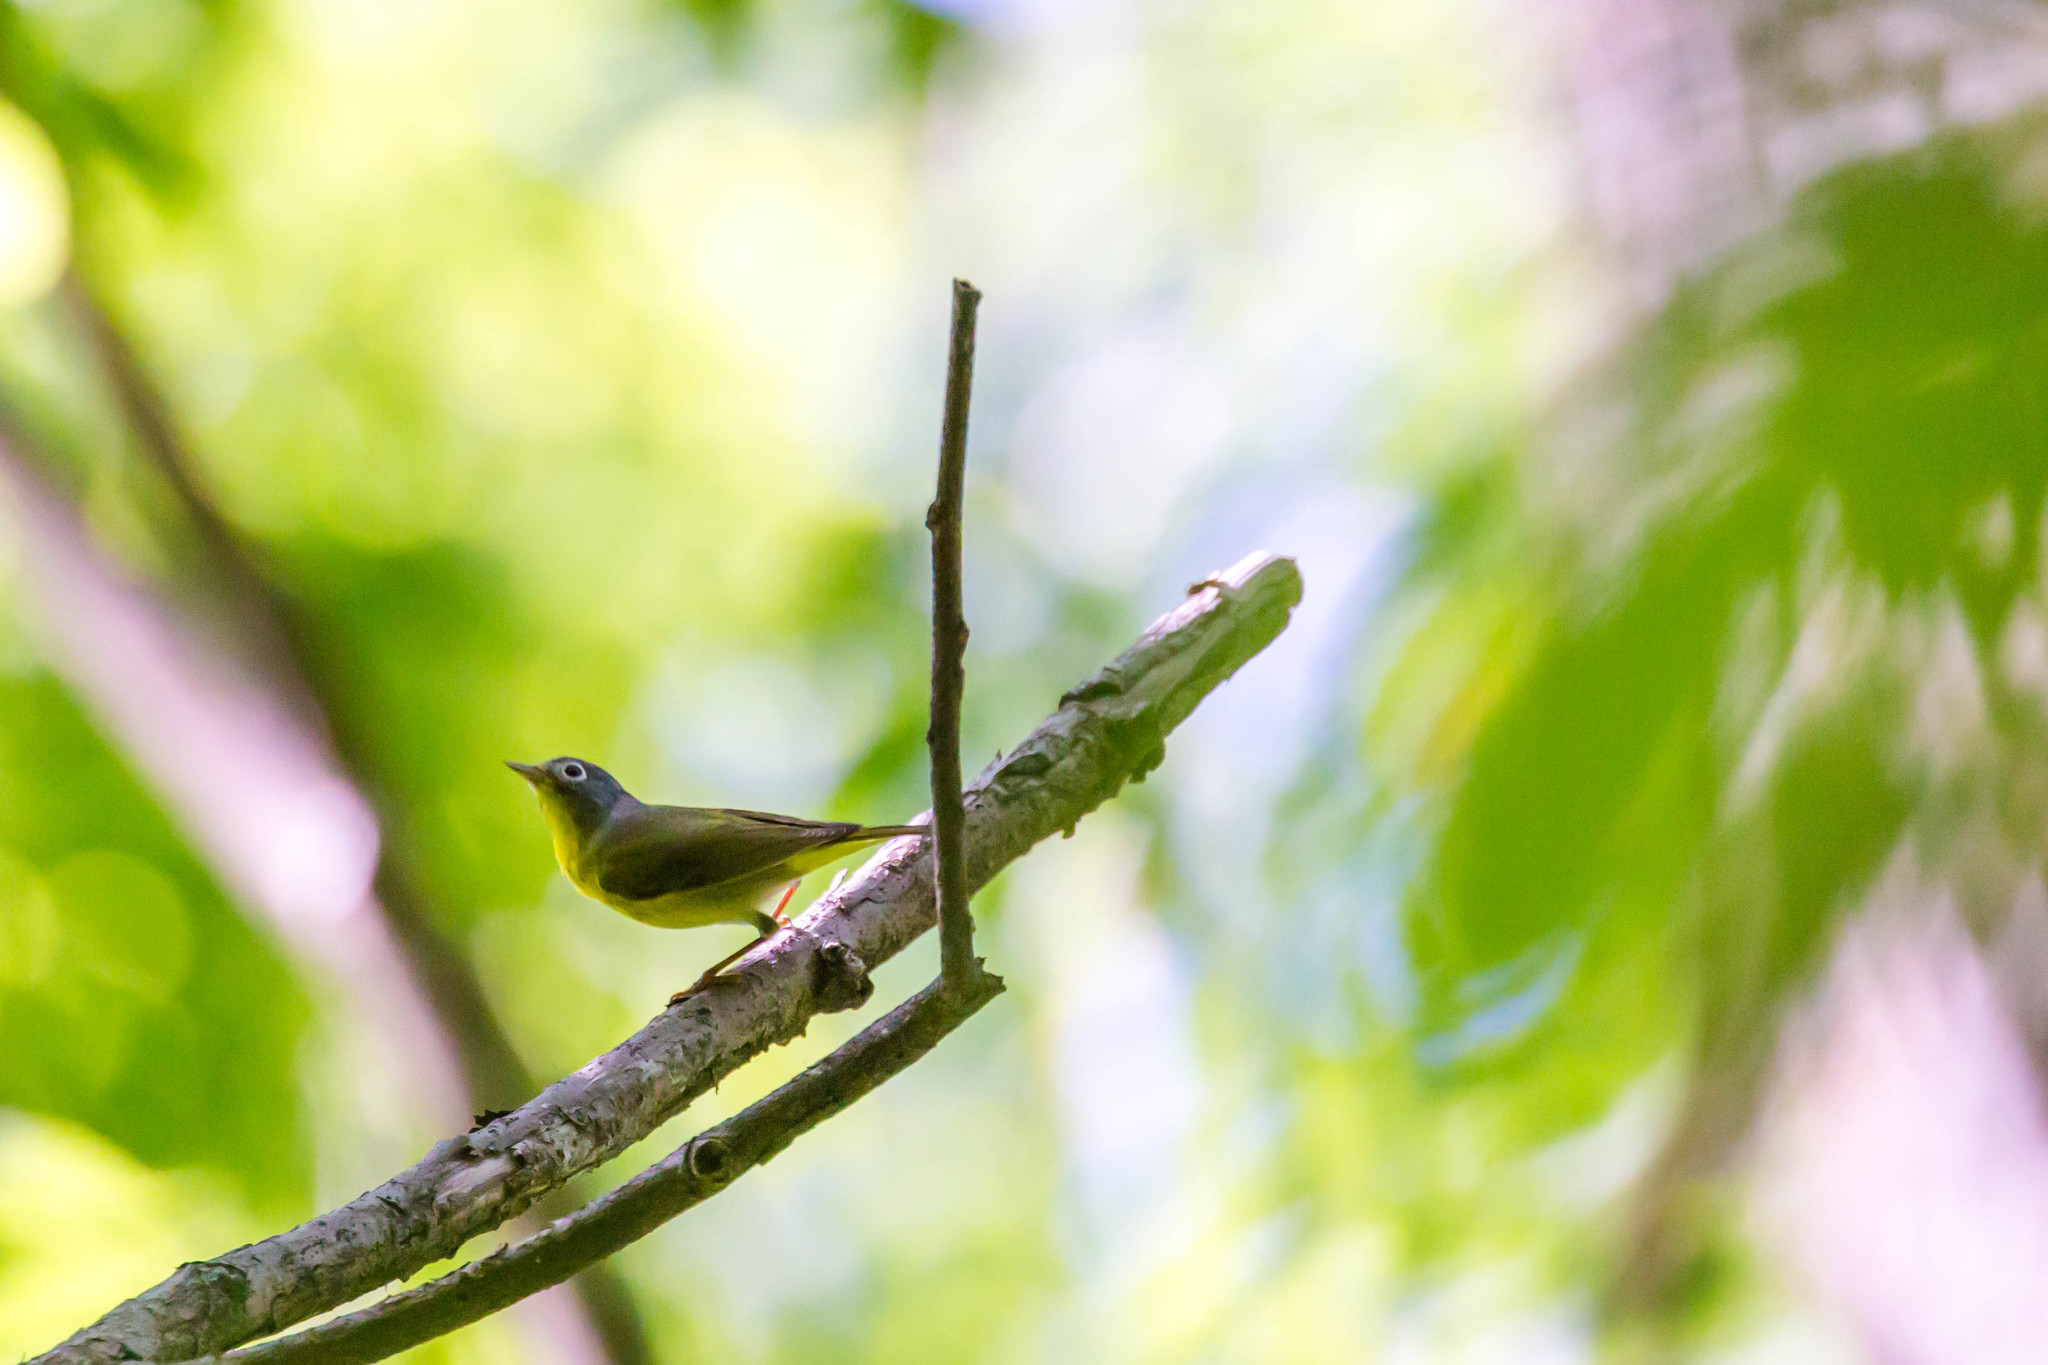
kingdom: Animalia
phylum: Chordata
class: Aves
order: Passeriformes
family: Parulidae
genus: Leiothlypis
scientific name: Leiothlypis ruficapilla
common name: Nashville warbler
